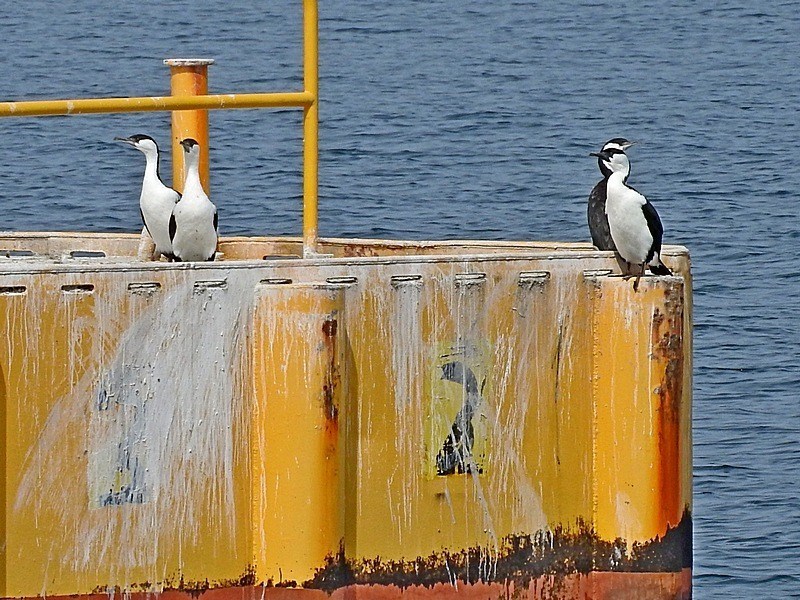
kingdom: Animalia
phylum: Chordata
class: Aves
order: Suliformes
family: Phalacrocoracidae
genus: Phalacrocorax
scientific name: Phalacrocorax fuscescens
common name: Black-faced cormorant
